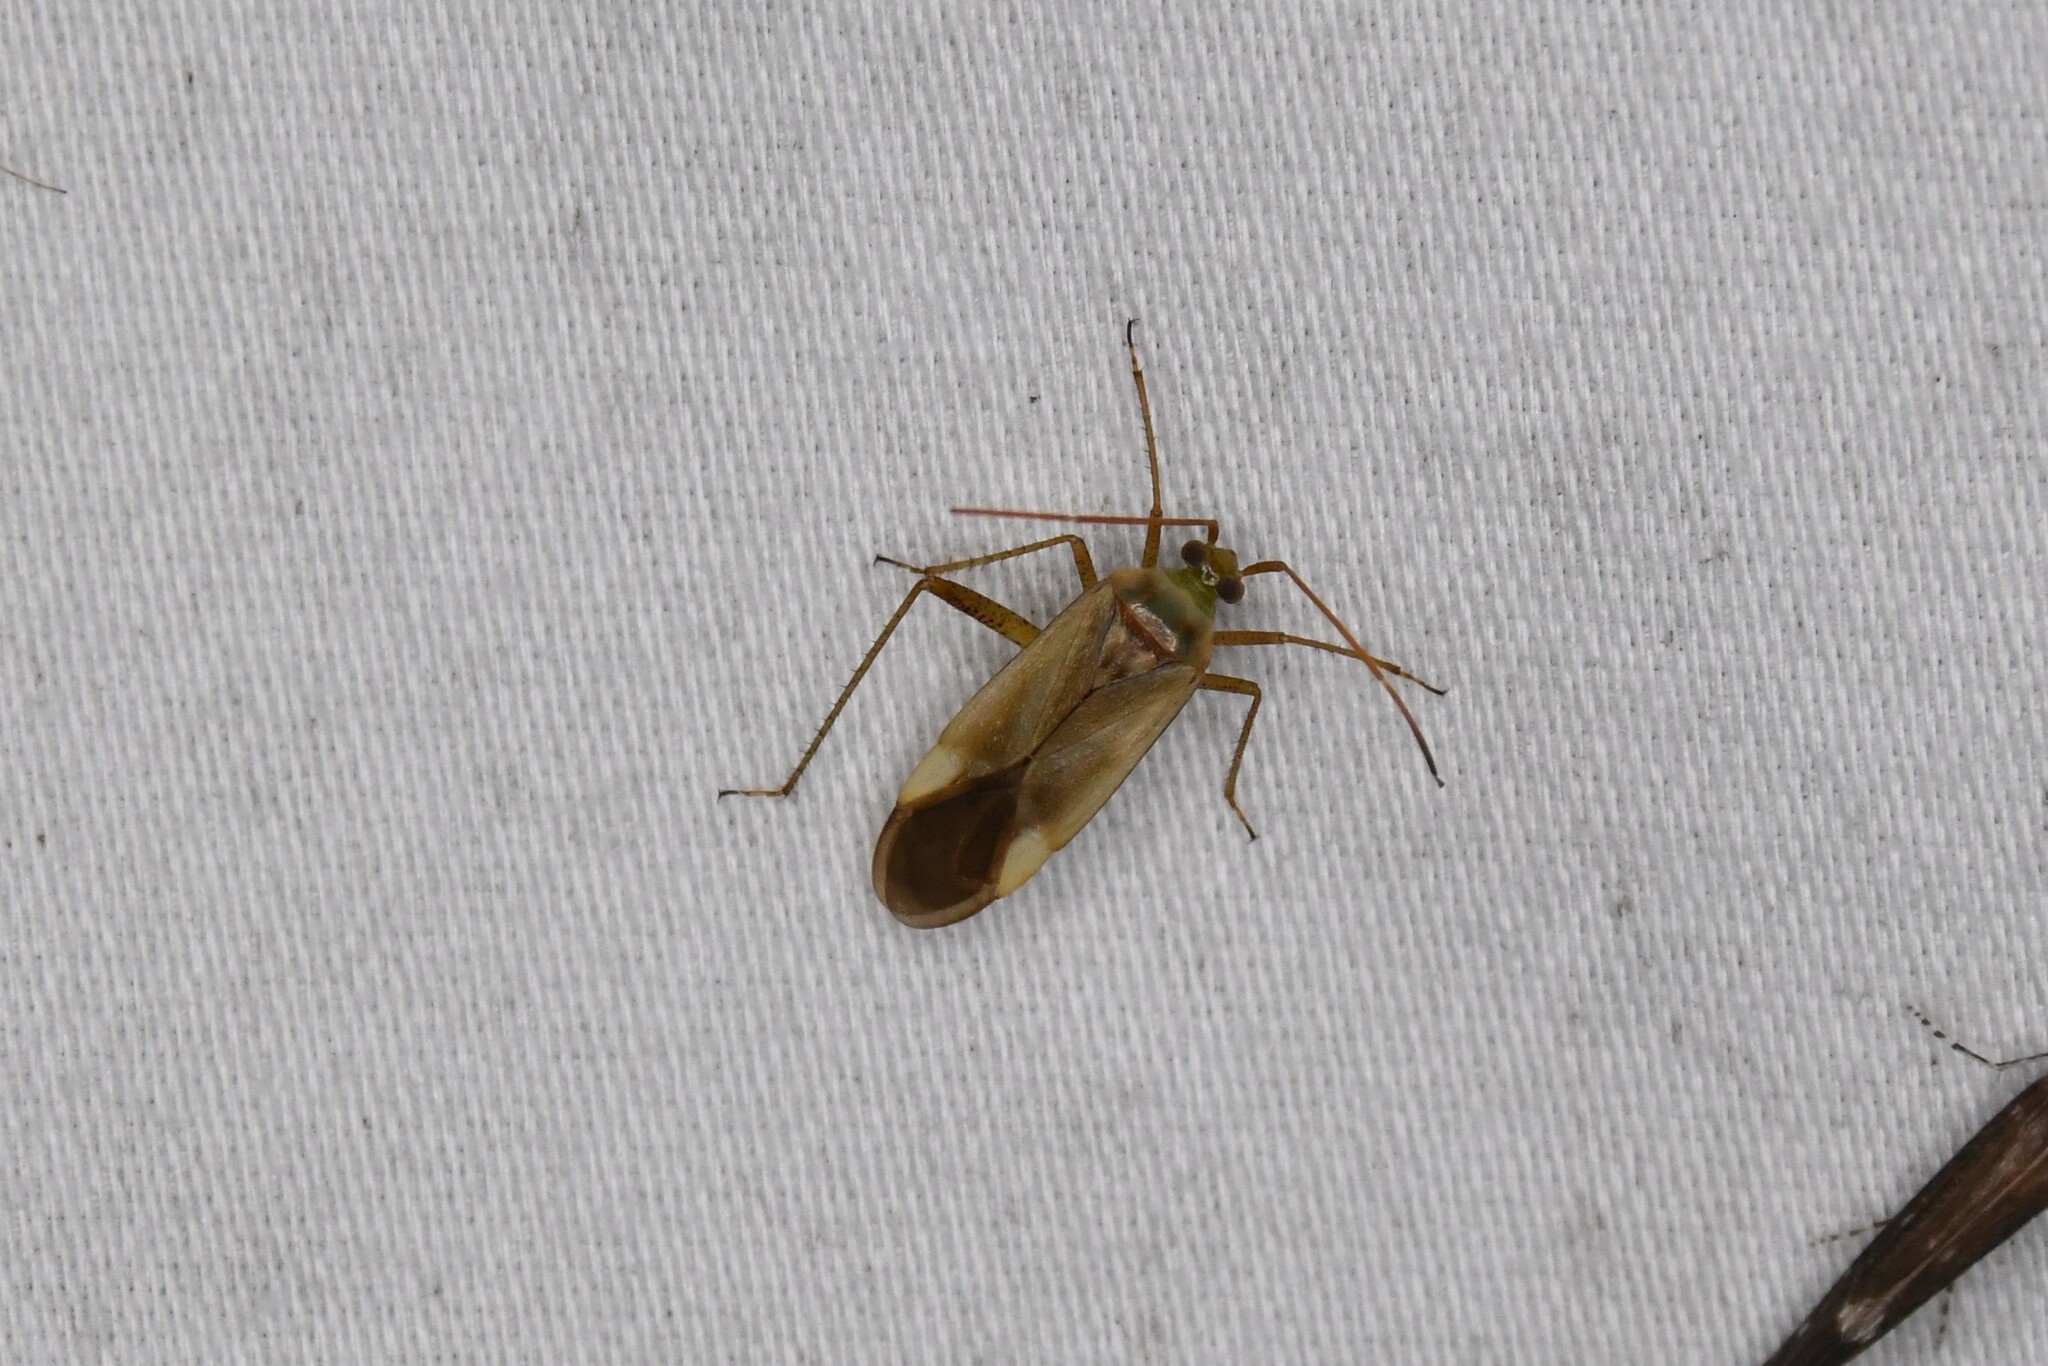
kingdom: Animalia
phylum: Arthropoda
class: Insecta
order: Hemiptera
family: Miridae
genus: Adelphocoris
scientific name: Adelphocoris lineolatus
